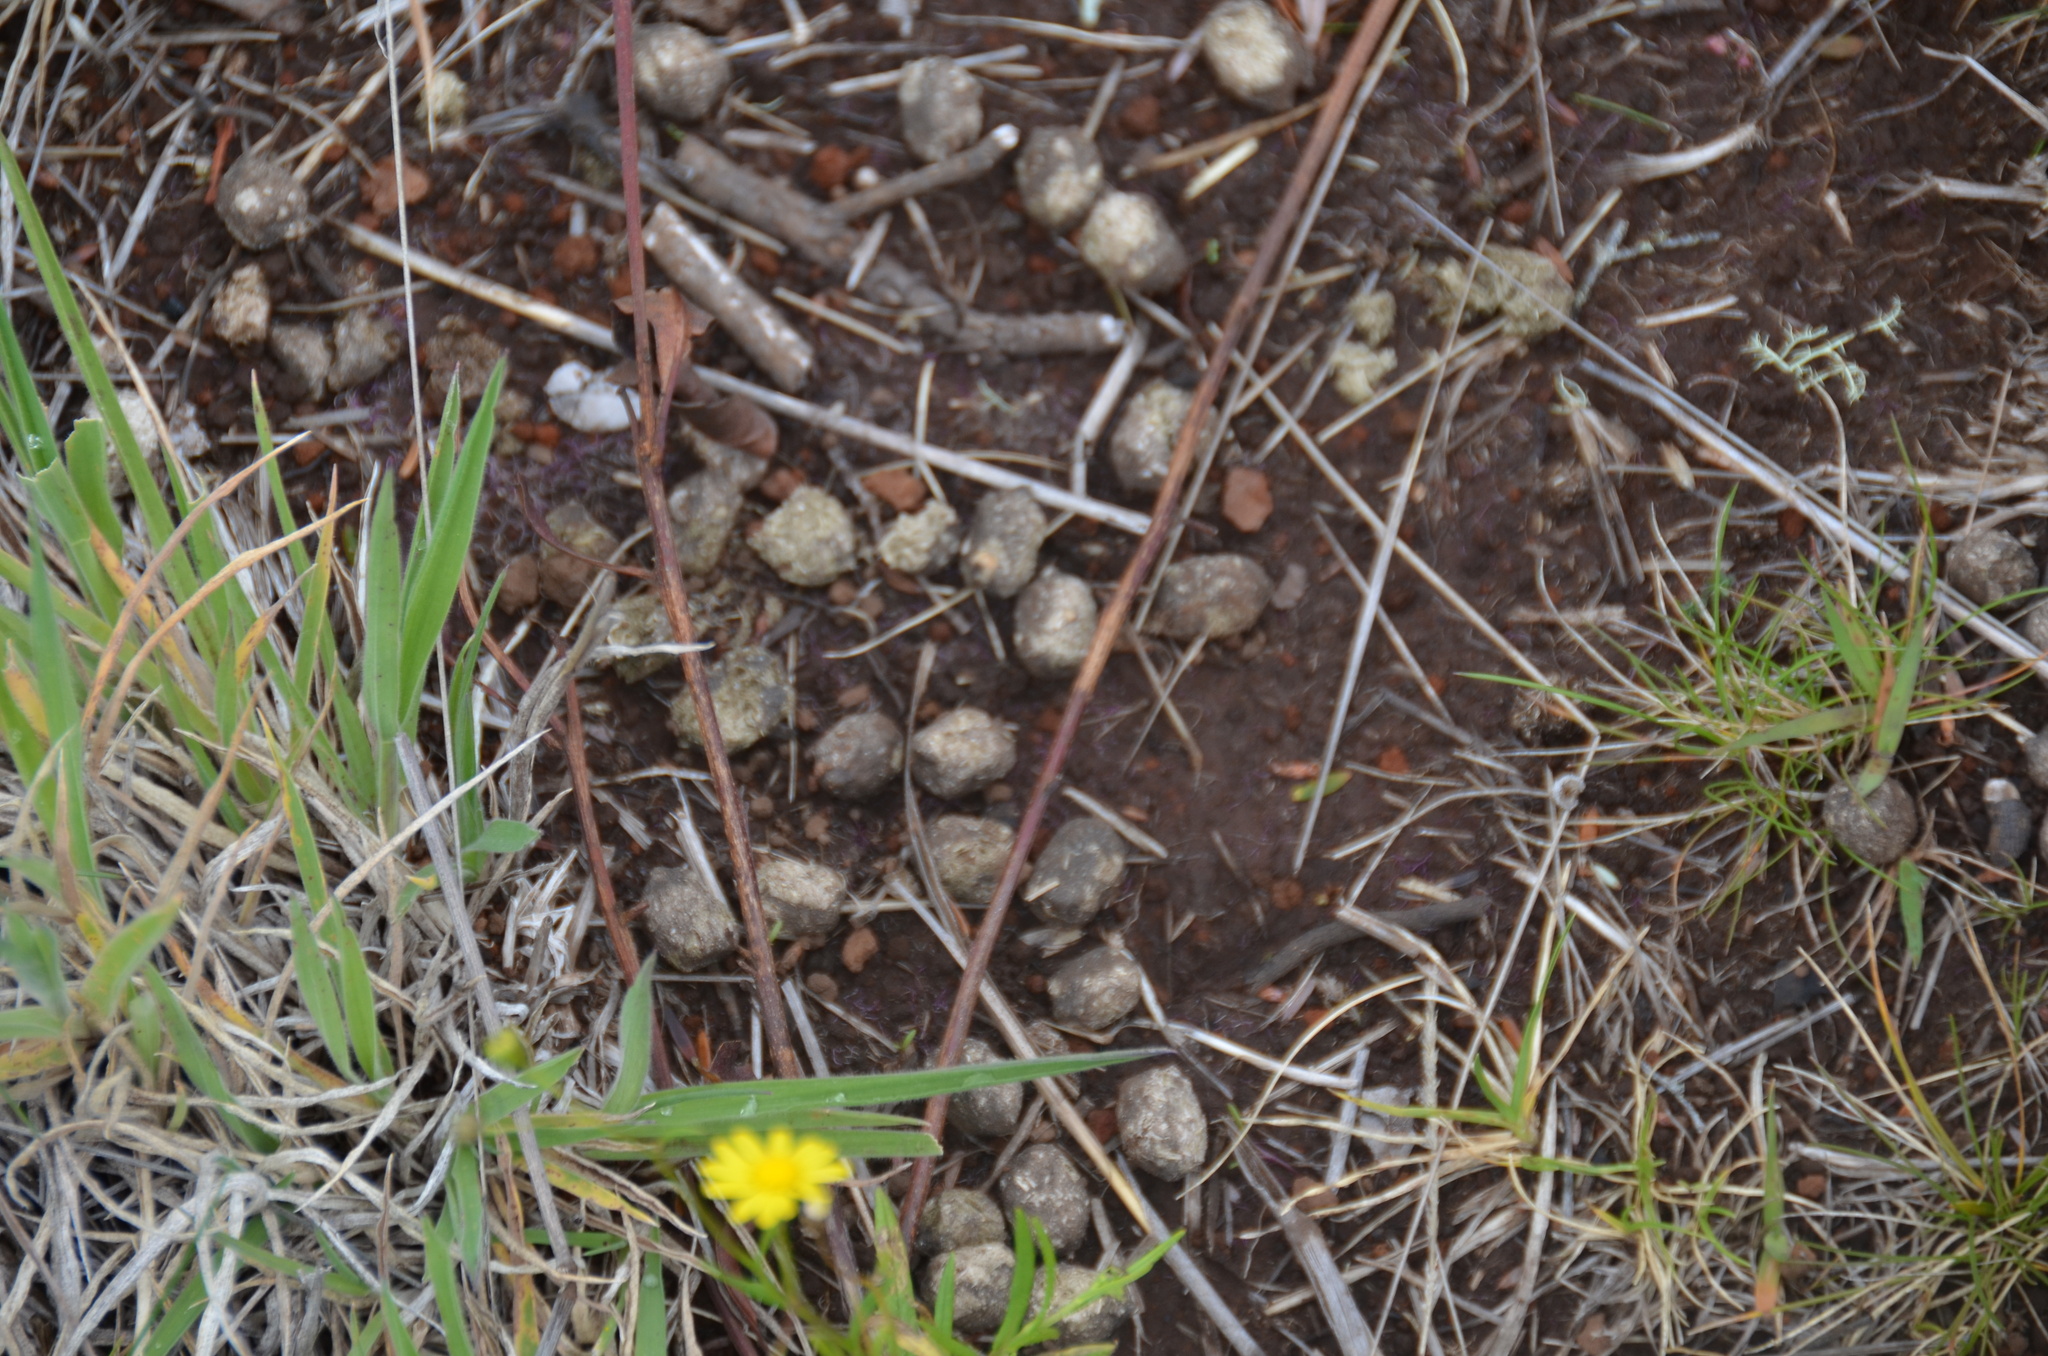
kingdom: Animalia
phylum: Chordata
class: Mammalia
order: Artiodactyla
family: Bovidae
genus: Capra
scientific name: Capra hircus
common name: Domestic goat
